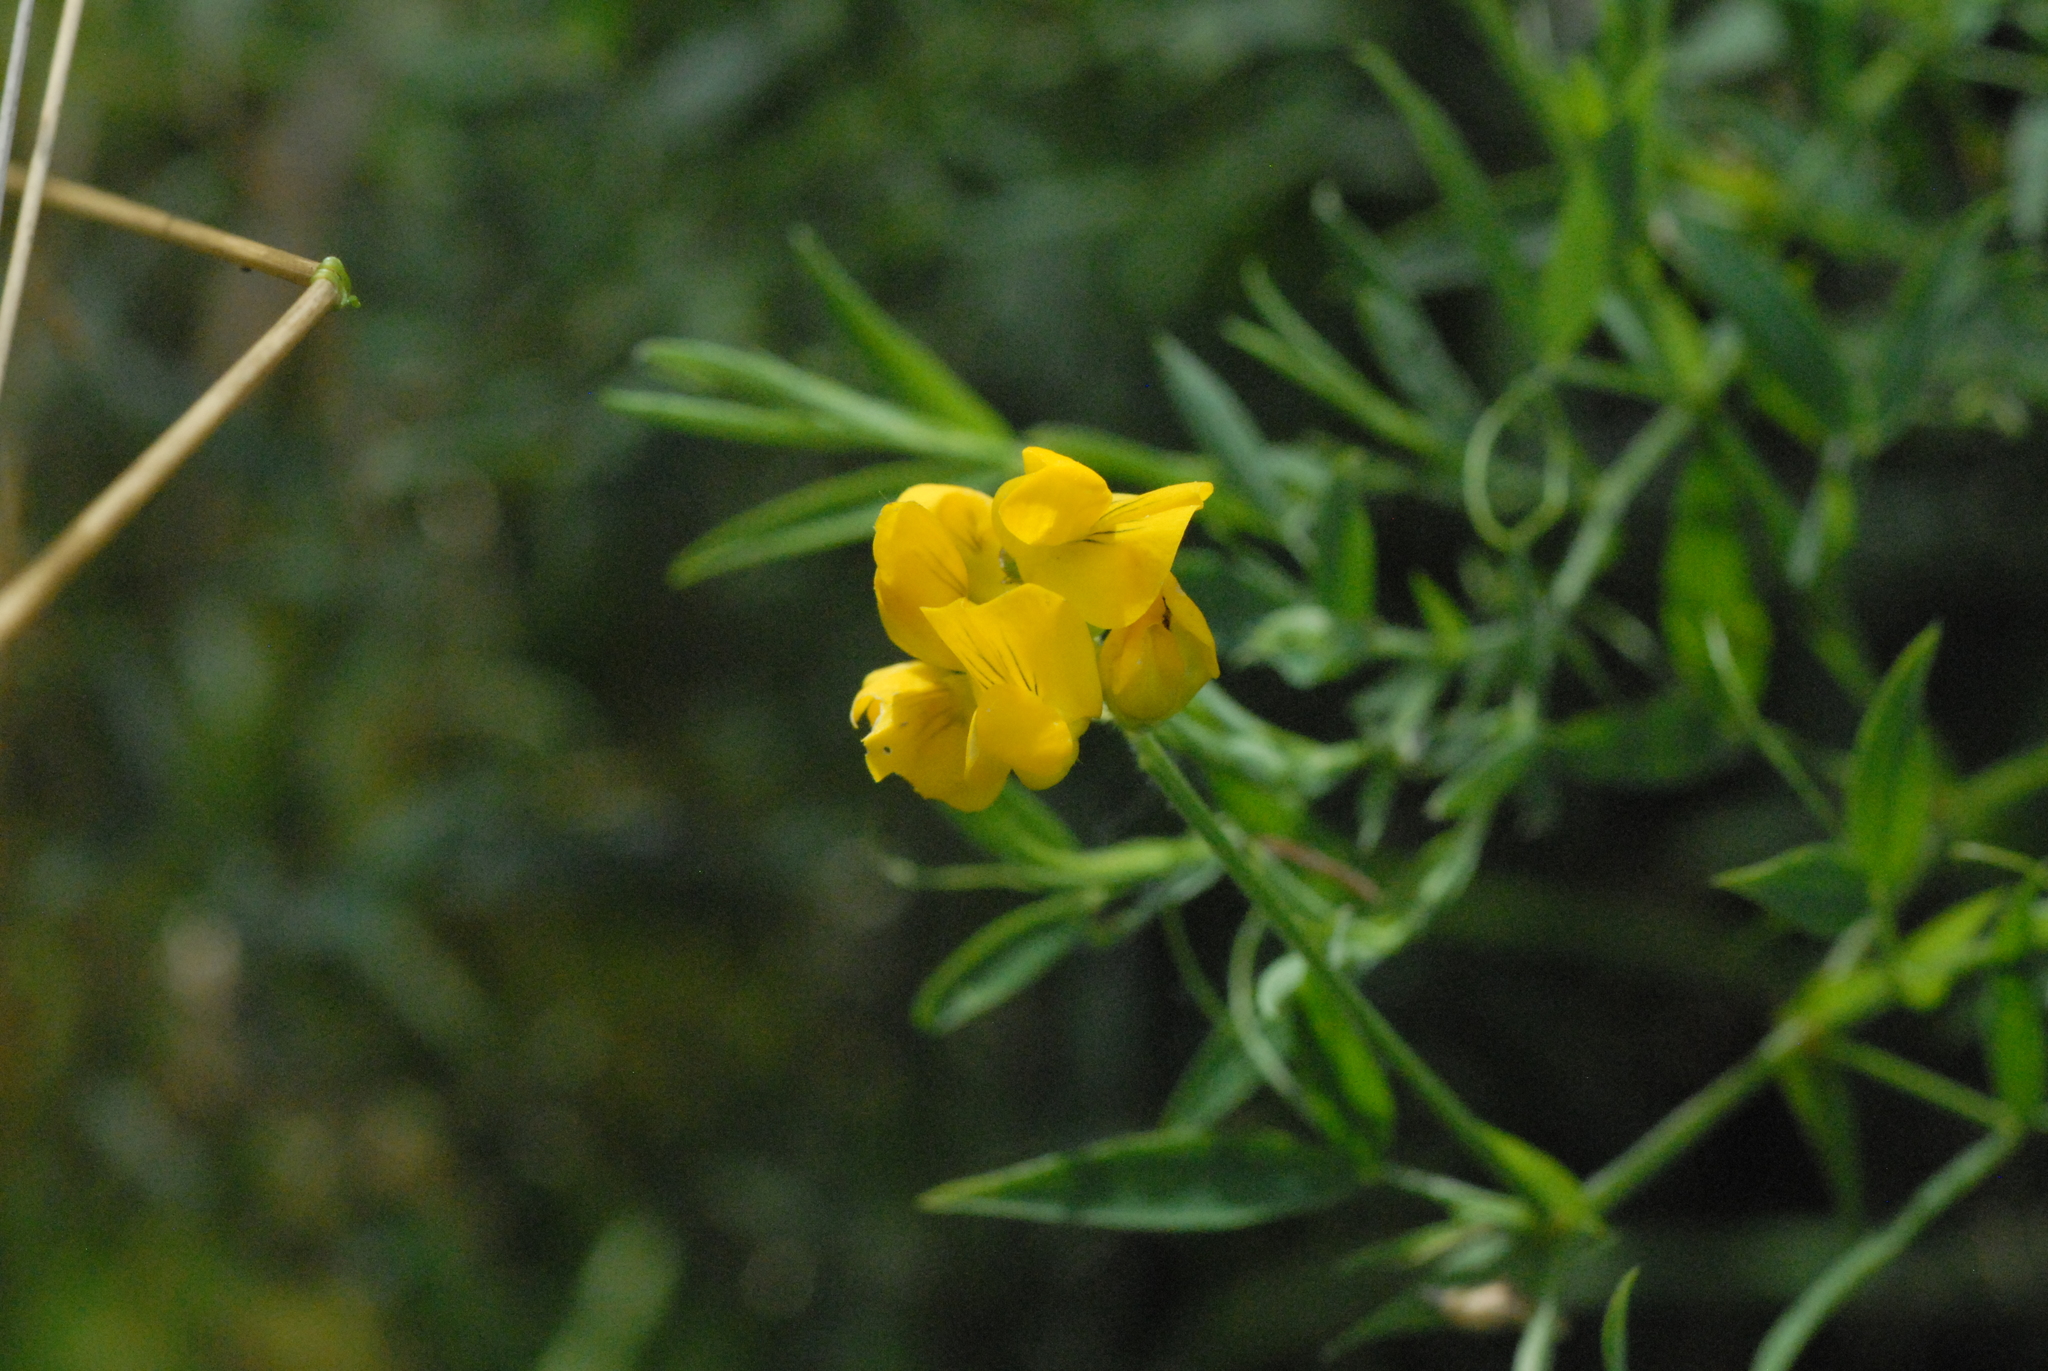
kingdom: Plantae
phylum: Tracheophyta
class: Magnoliopsida
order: Fabales
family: Fabaceae
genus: Lathyrus
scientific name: Lathyrus pratensis
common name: Meadow vetchling
